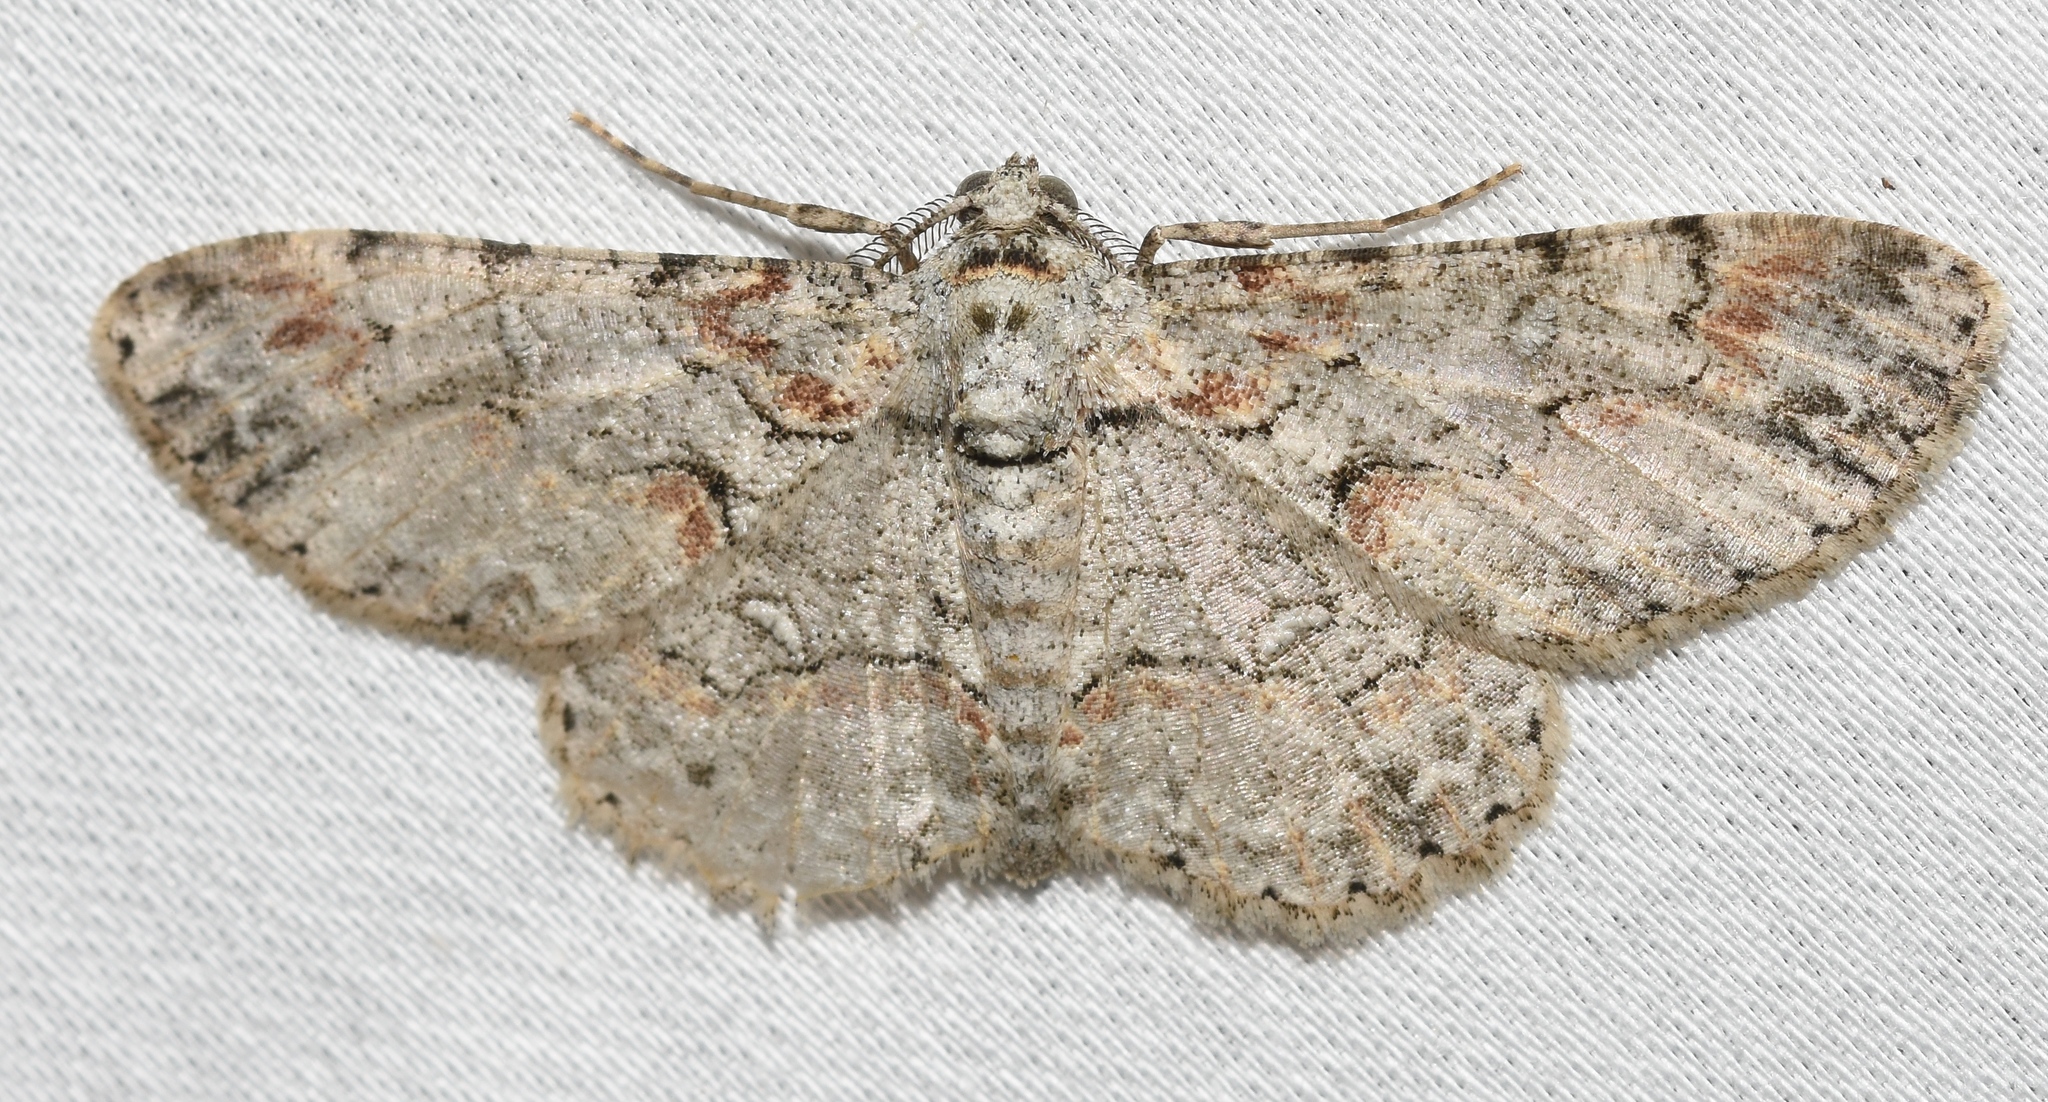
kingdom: Animalia
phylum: Arthropoda
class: Insecta
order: Lepidoptera
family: Geometridae
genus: Iridopsis
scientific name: Iridopsis defectaria
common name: Brown-shaded gray
